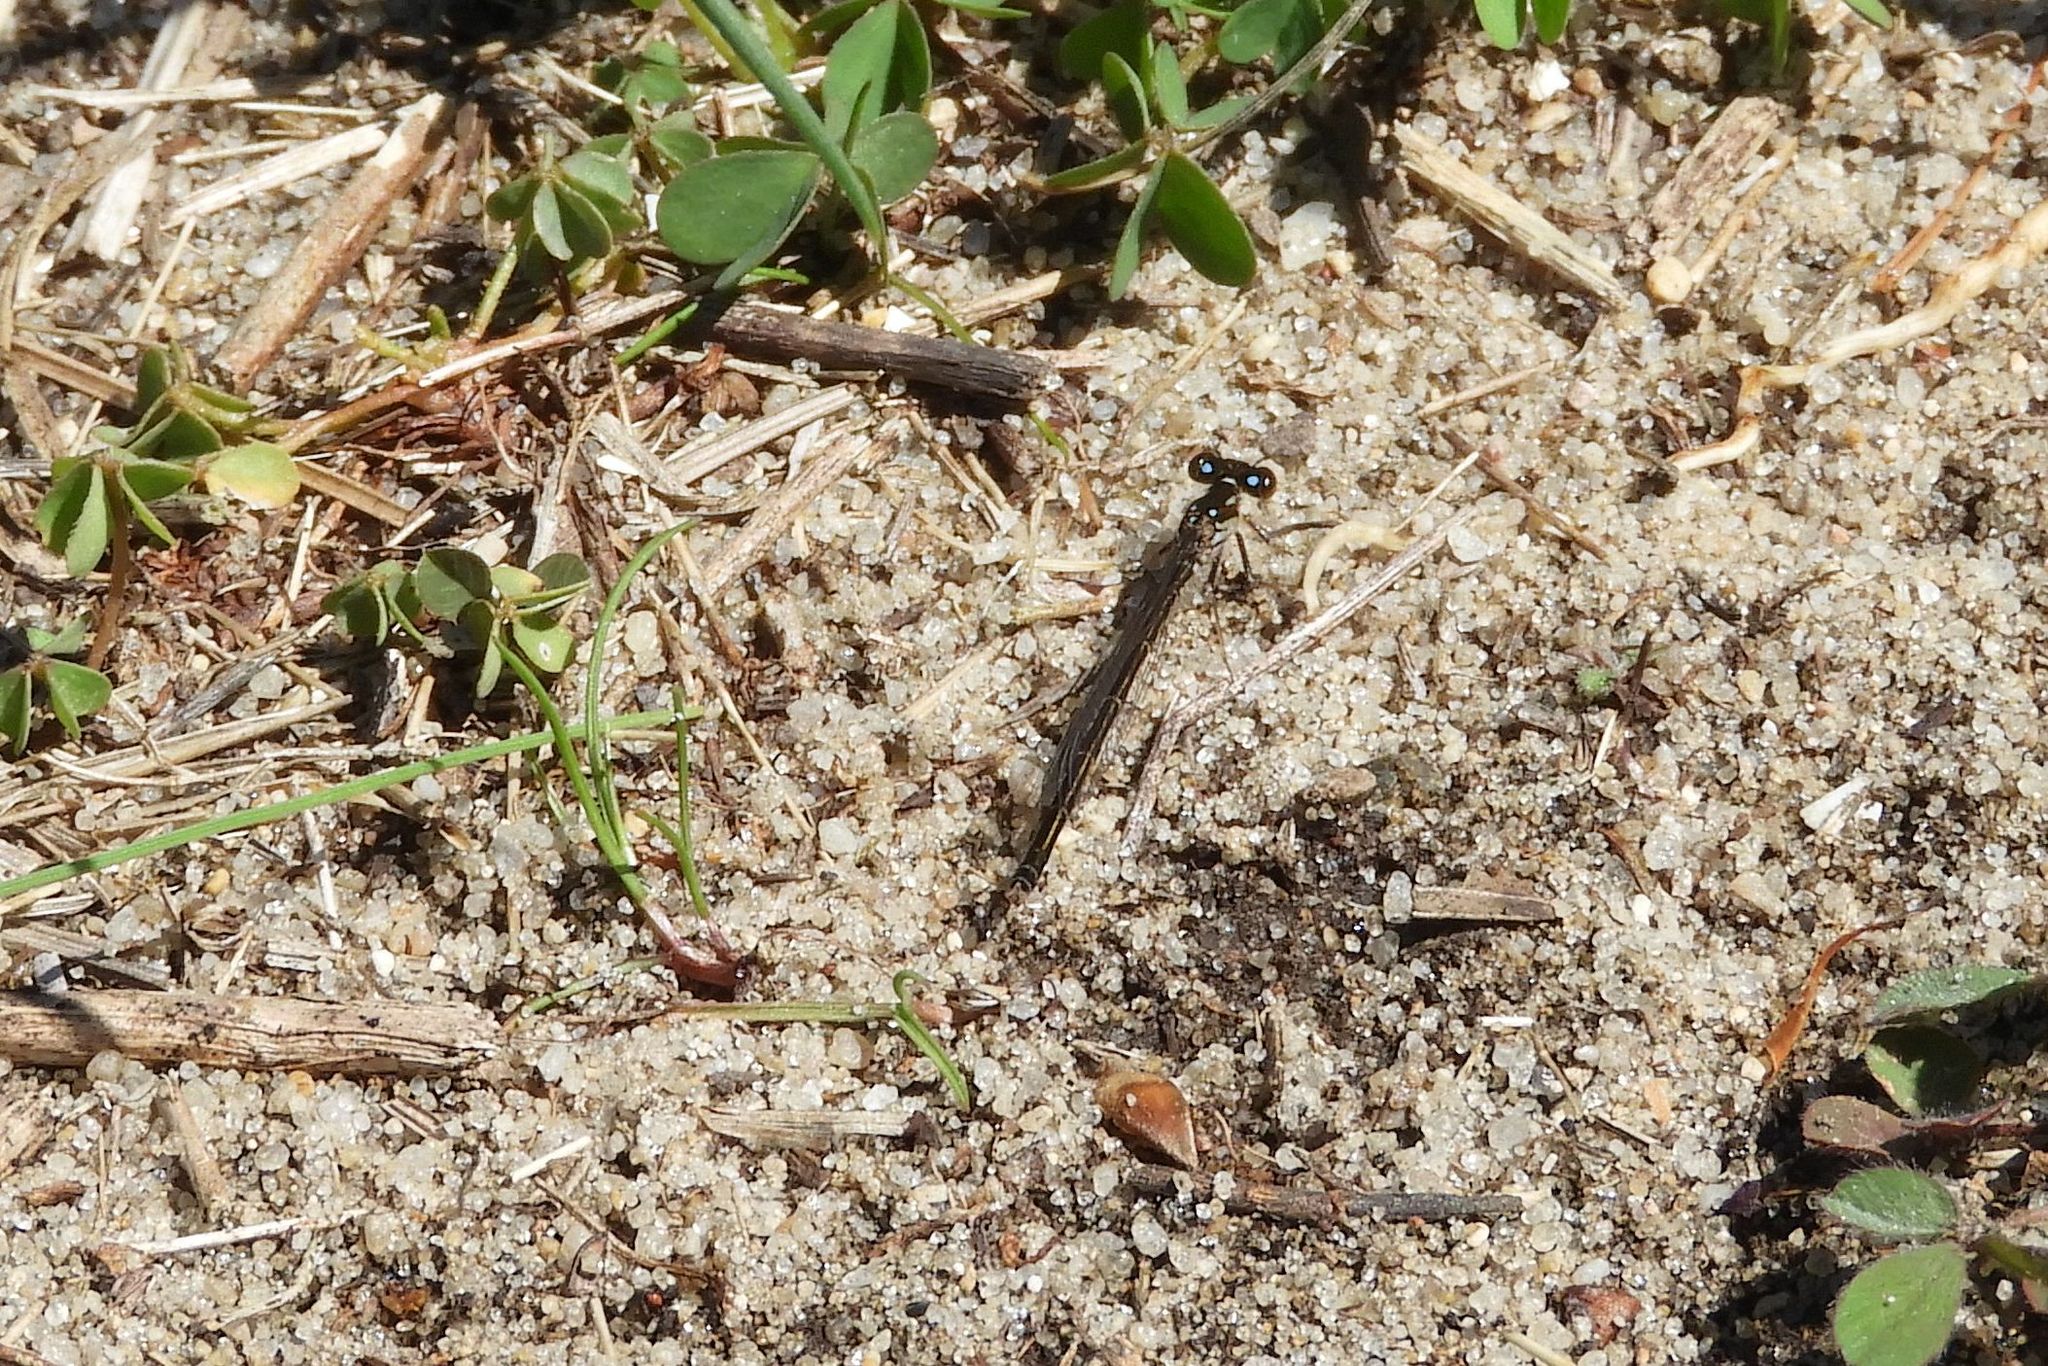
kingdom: Animalia
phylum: Arthropoda
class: Insecta
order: Odonata
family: Coenagrionidae
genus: Ischnura
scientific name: Ischnura posita
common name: Fragile forktail
